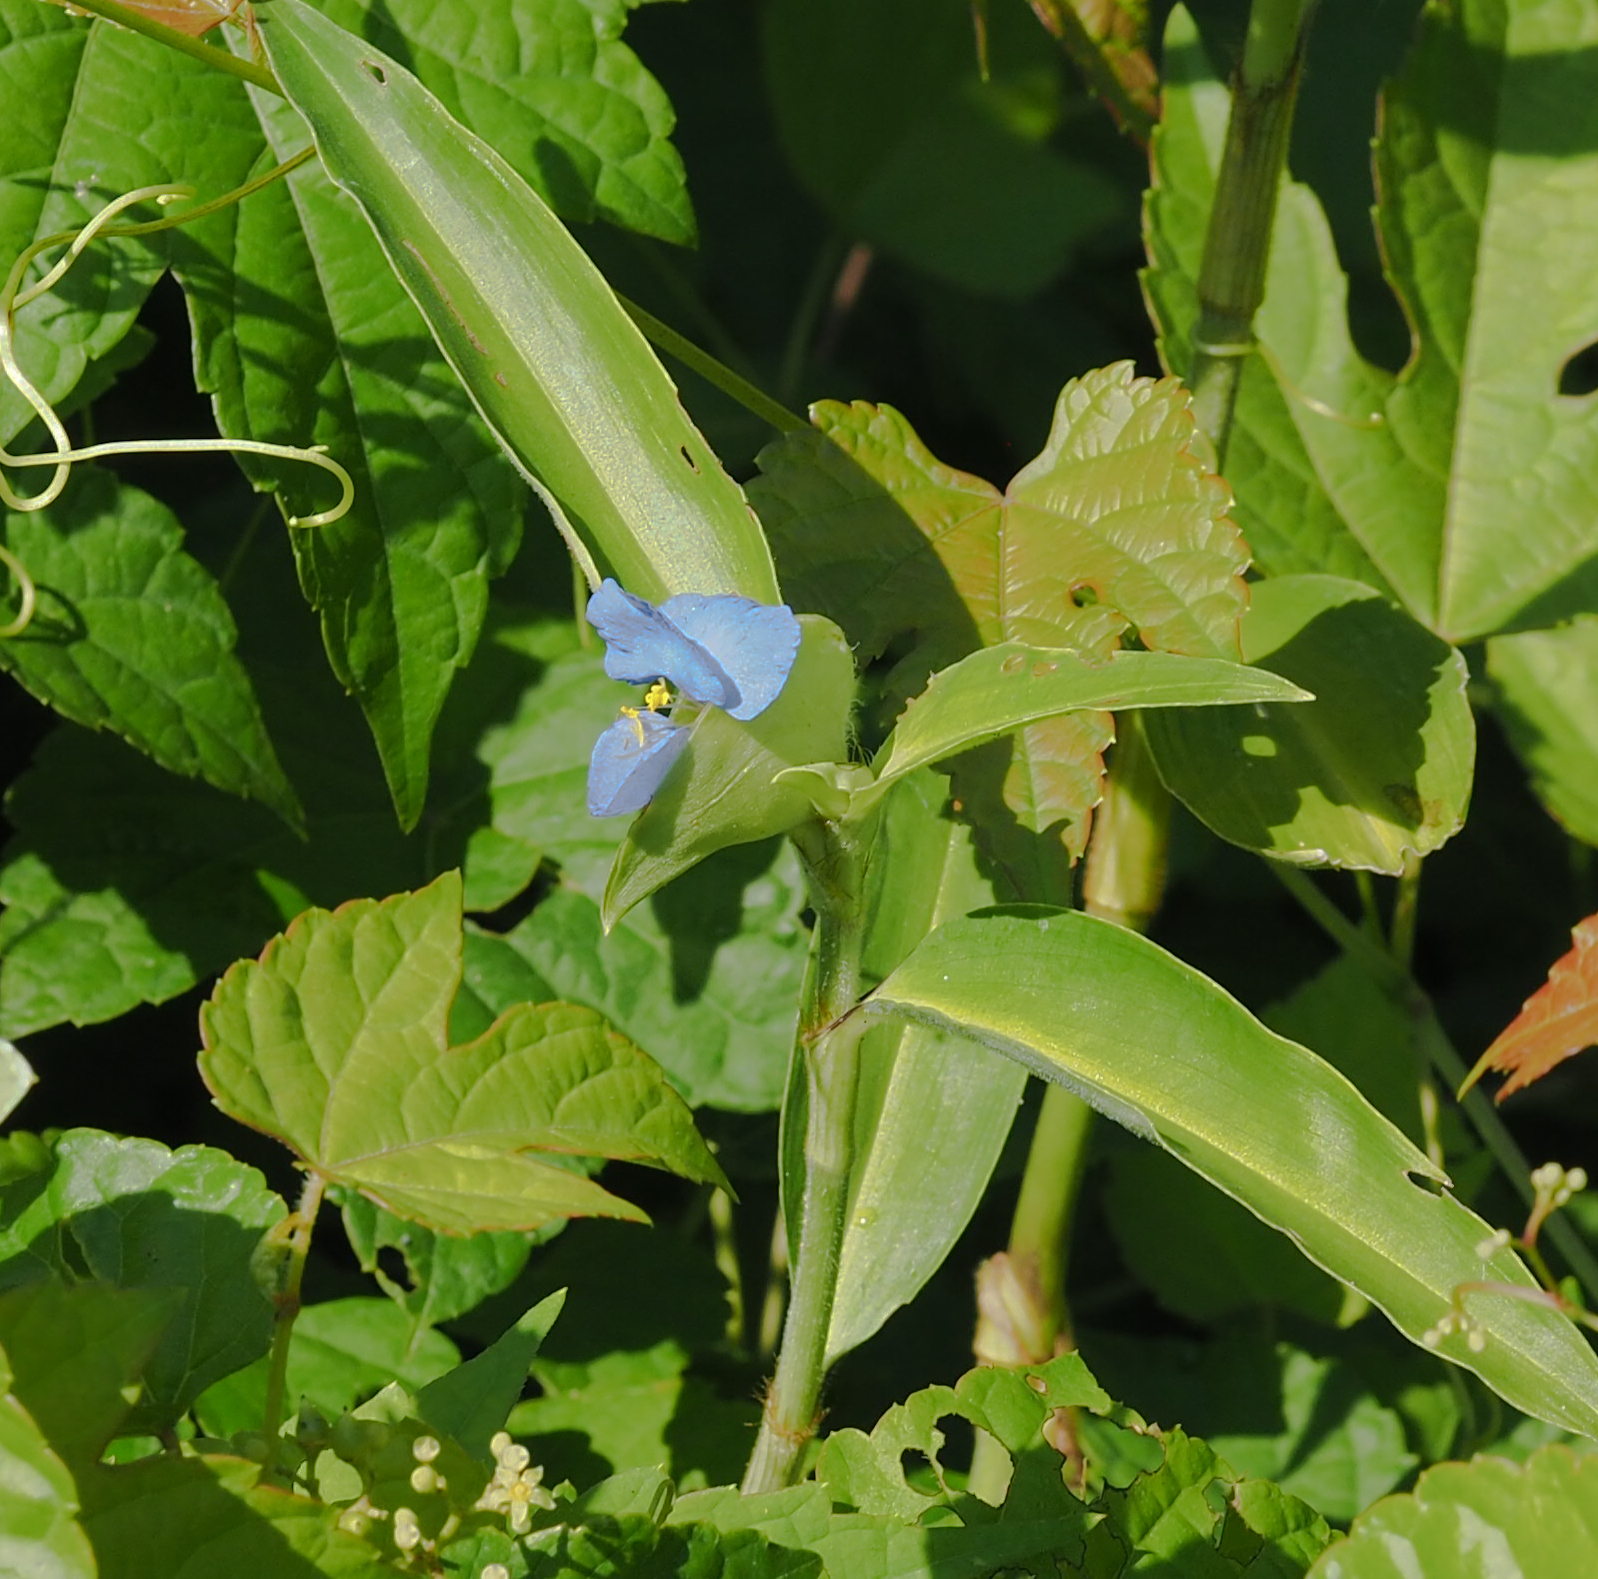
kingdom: Plantae
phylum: Tracheophyta
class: Liliopsida
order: Commelinales
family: Commelinaceae
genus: Commelina
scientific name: Commelina virginica
